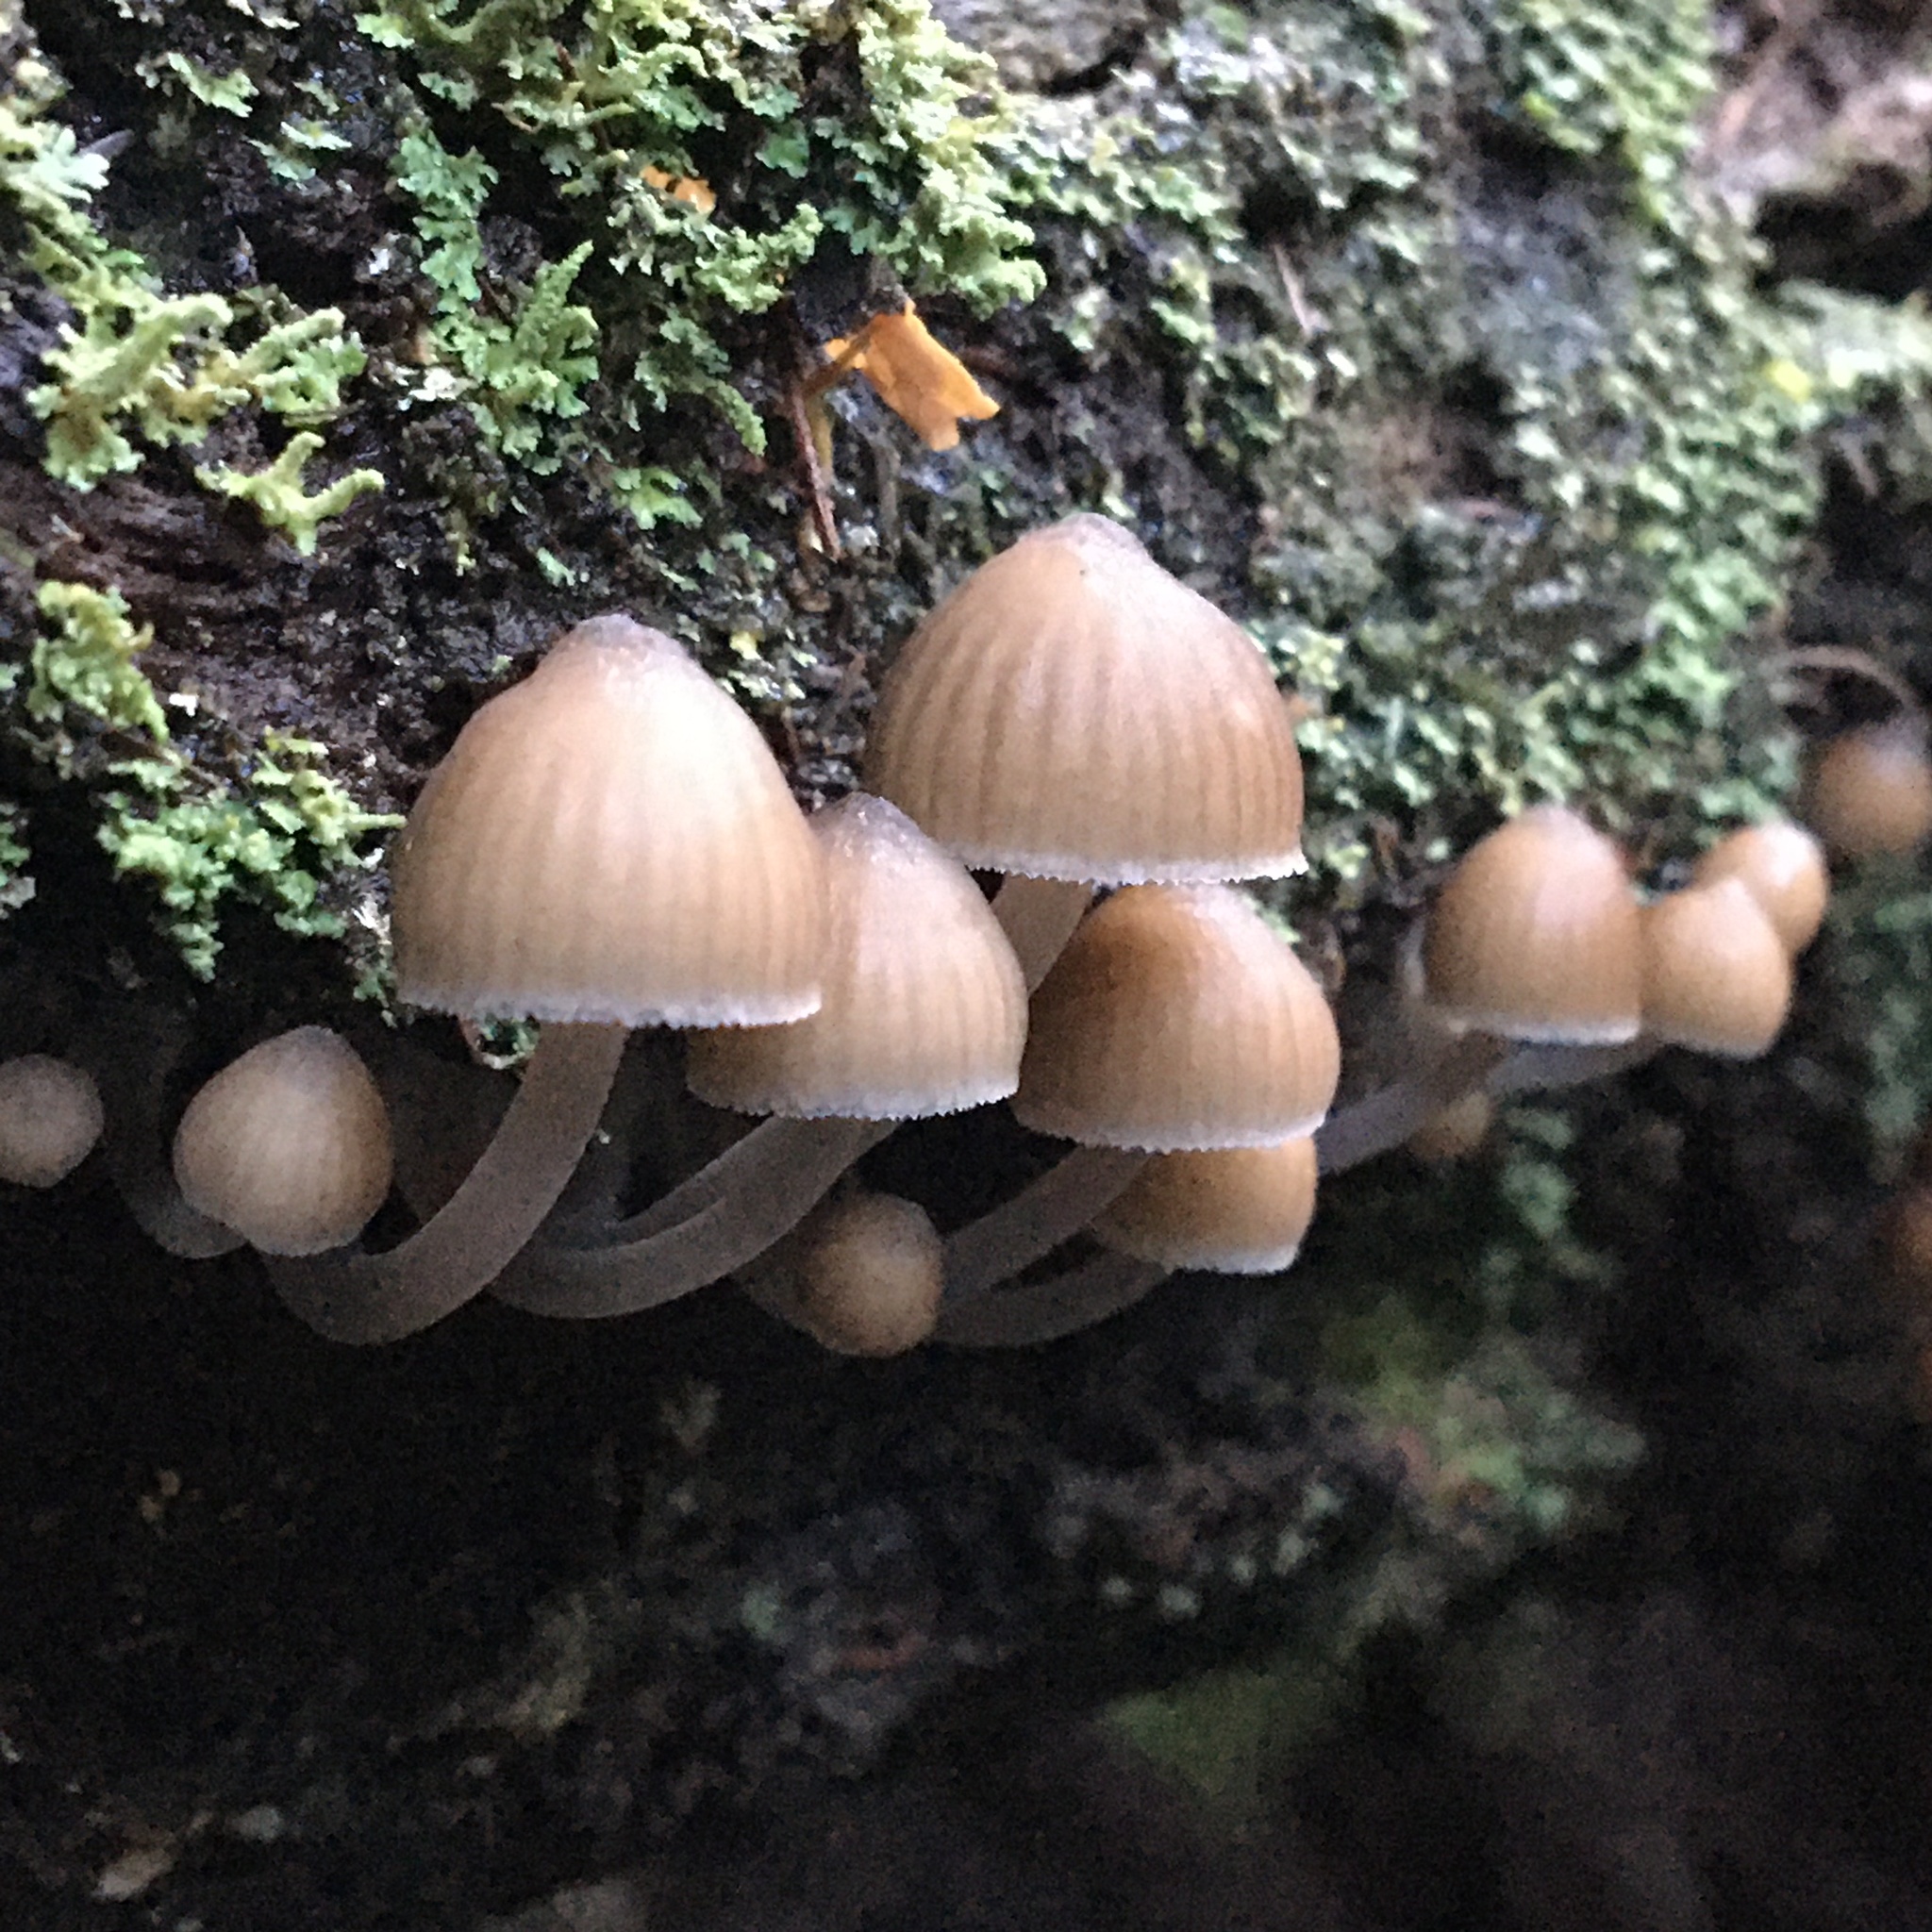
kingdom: Fungi
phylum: Basidiomycota
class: Agaricomycetes
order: Agaricales
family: Mycenaceae
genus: Mycena
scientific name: Mycena clarkeana
